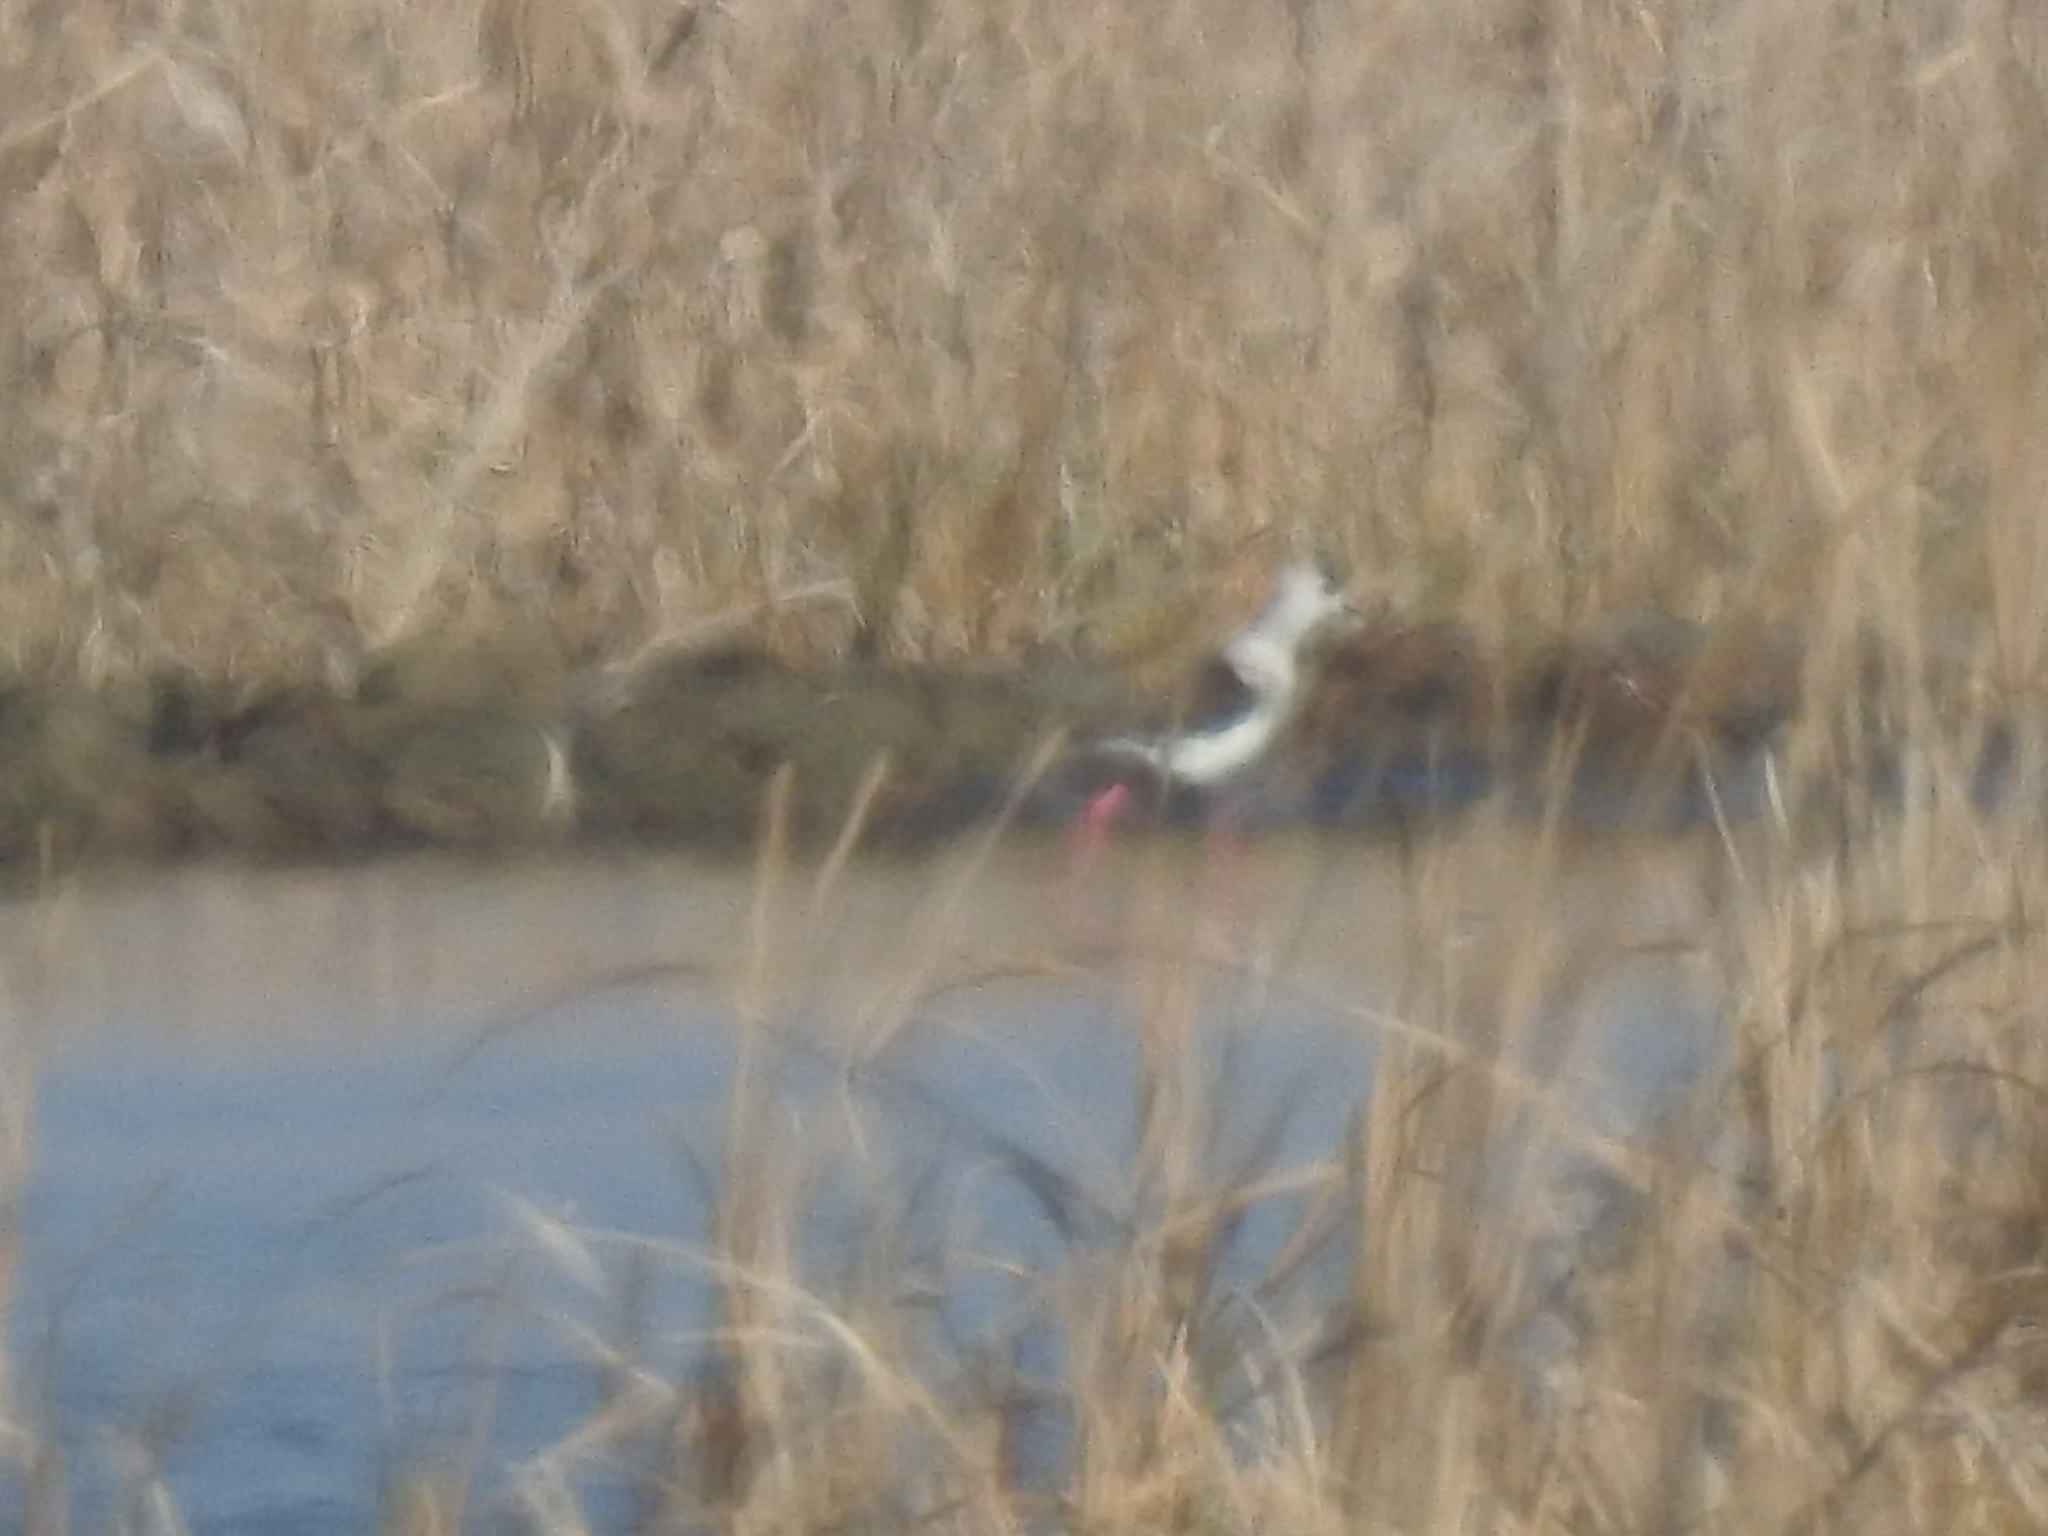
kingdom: Animalia
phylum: Chordata
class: Aves
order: Charadriiformes
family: Recurvirostridae
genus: Himantopus
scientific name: Himantopus himantopus
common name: Black-winged stilt
